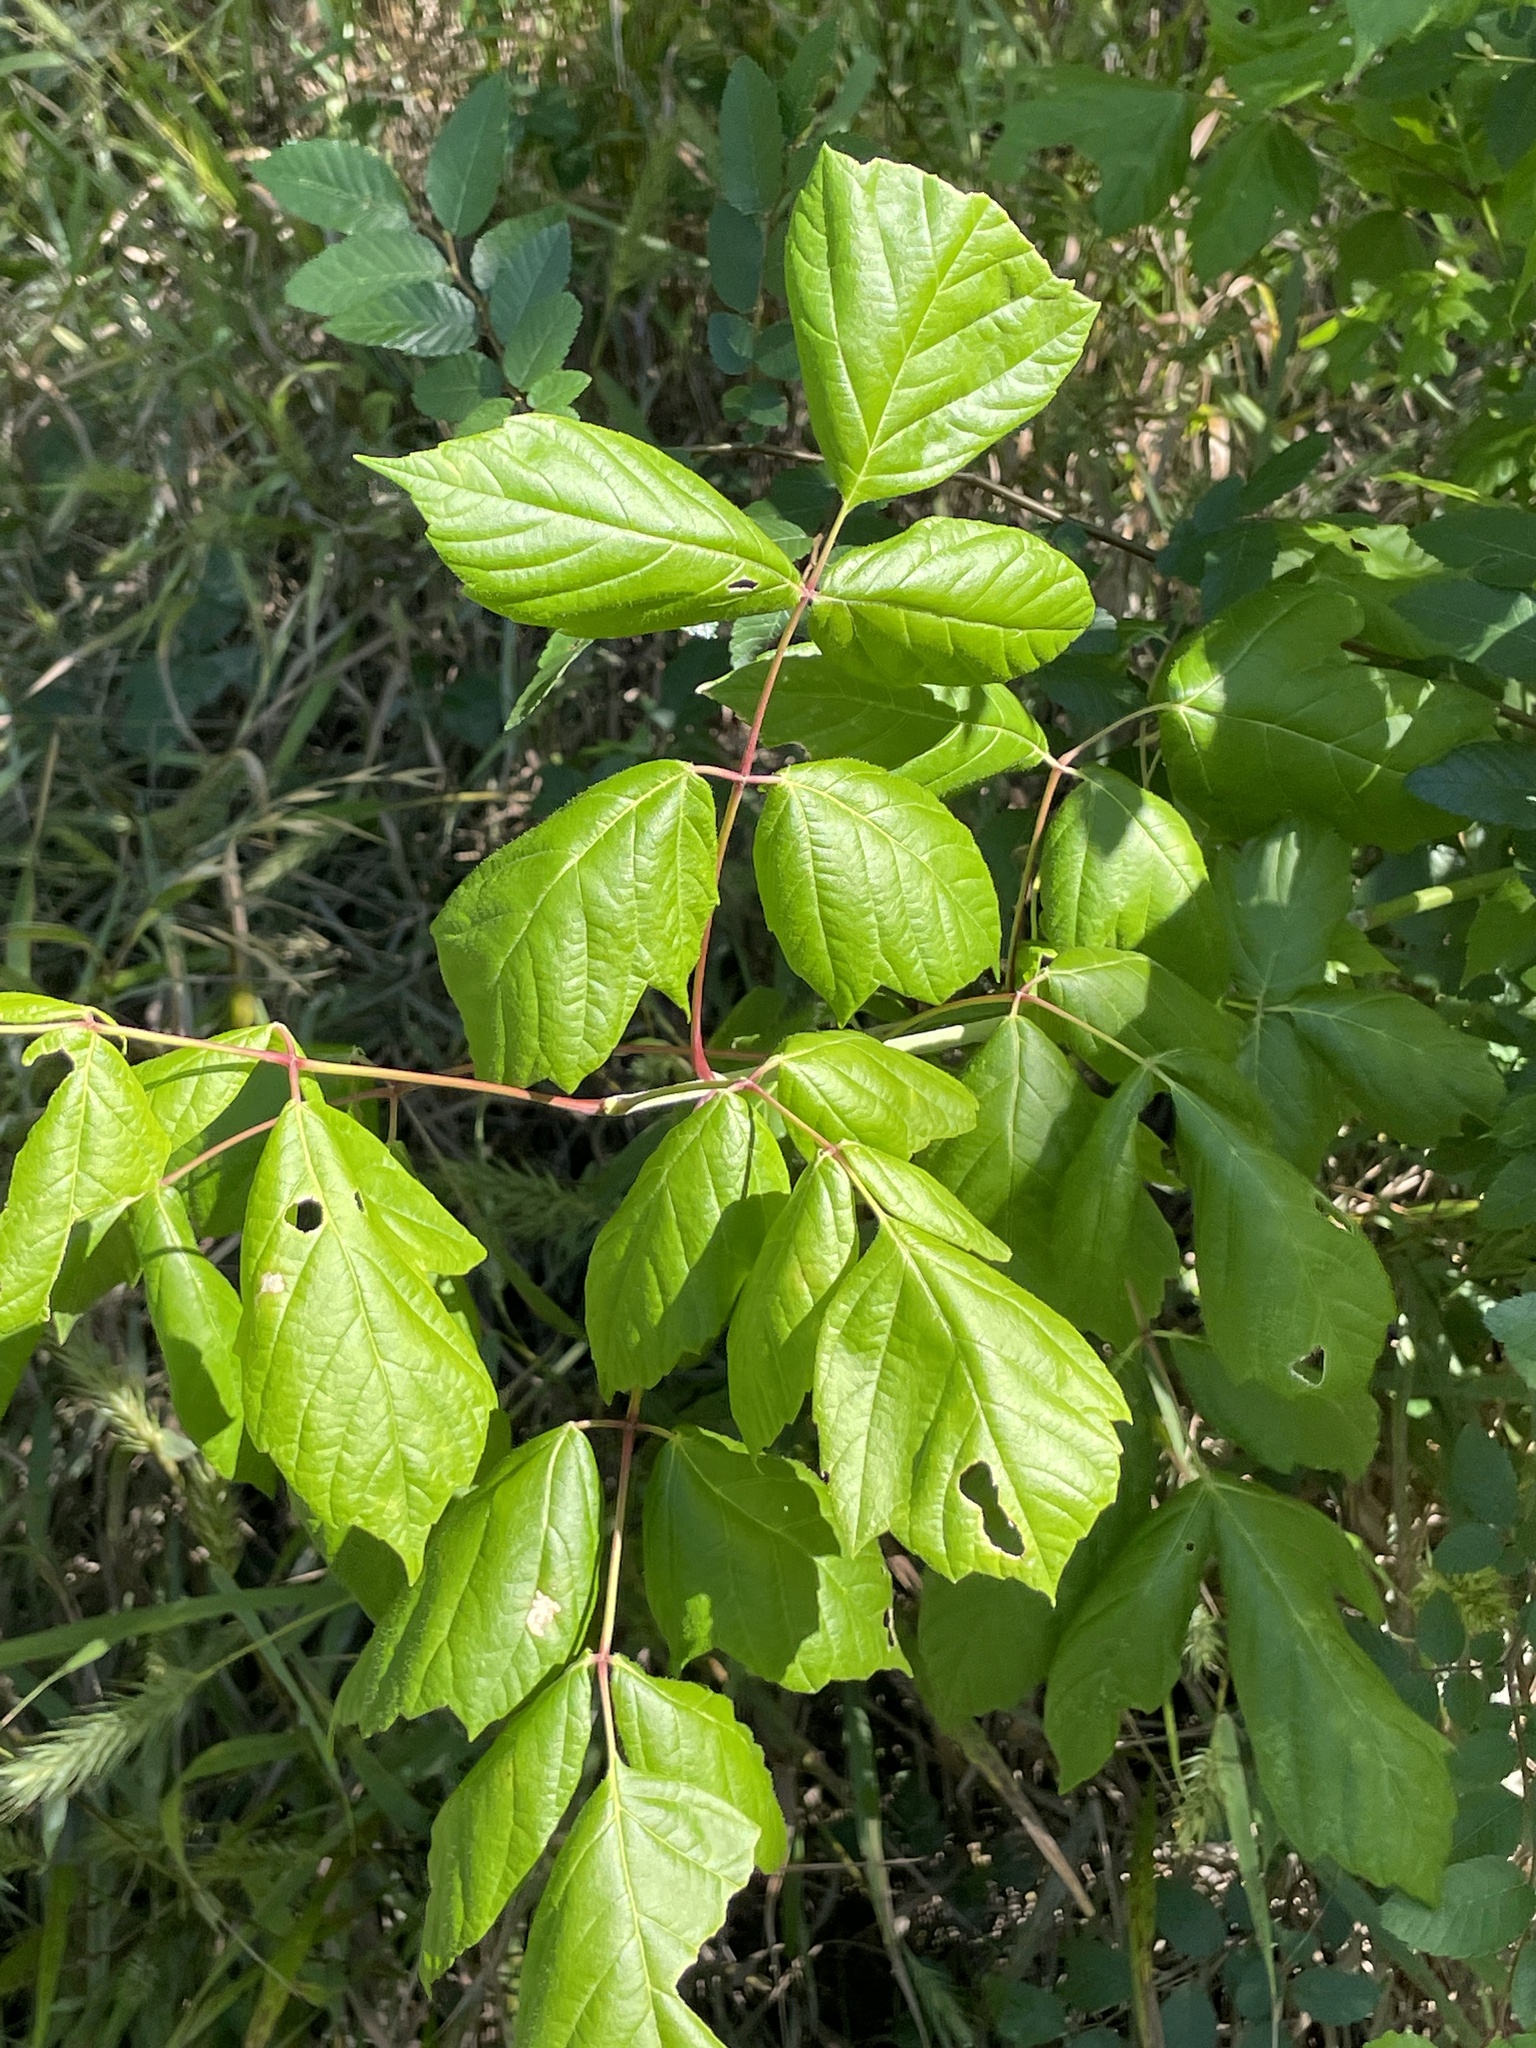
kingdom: Plantae
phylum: Tracheophyta
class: Magnoliopsida
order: Sapindales
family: Sapindaceae
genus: Acer
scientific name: Acer negundo
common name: Ashleaf maple
